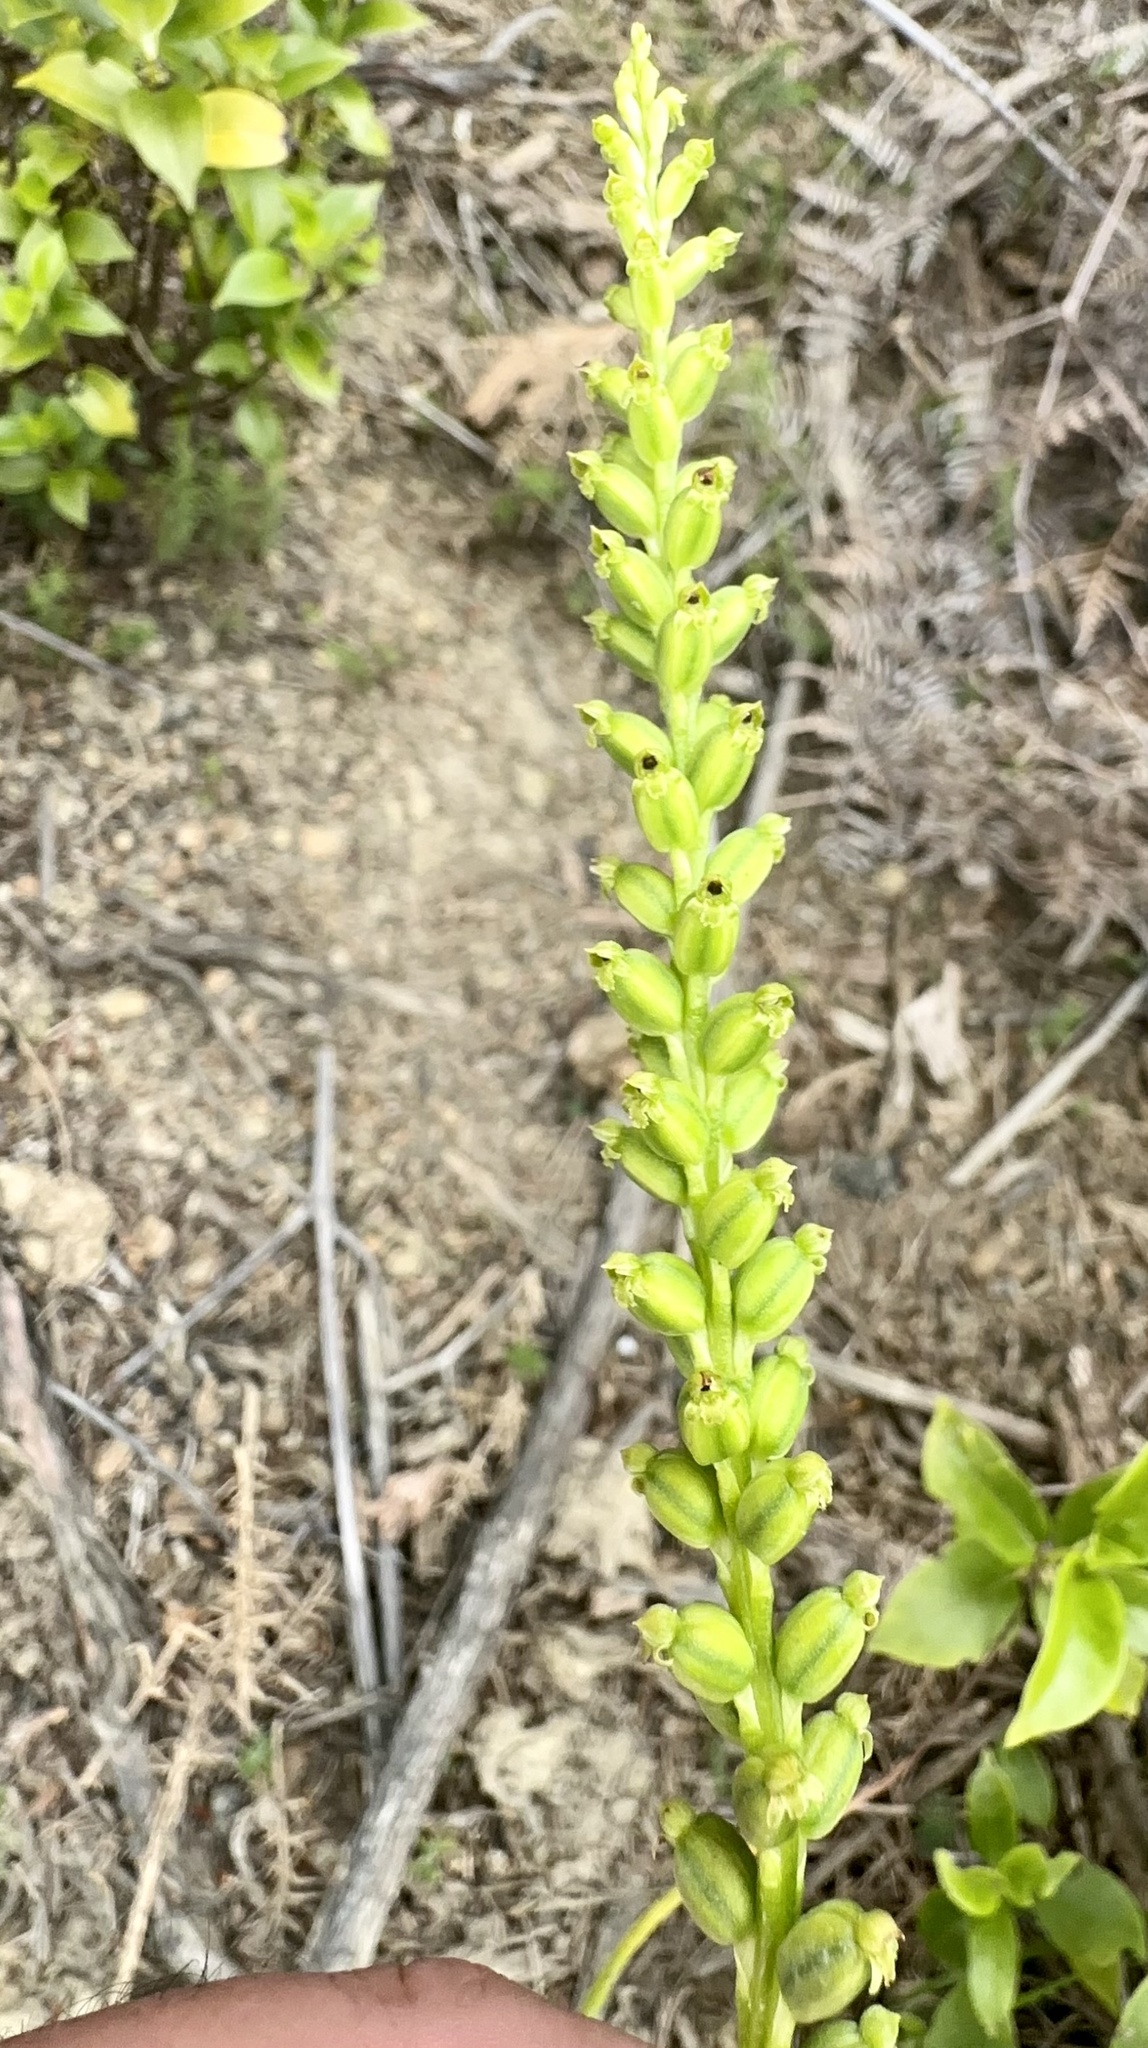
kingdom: Plantae
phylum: Tracheophyta
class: Liliopsida
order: Asparagales
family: Orchidaceae
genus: Microtis
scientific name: Microtis unifolia
